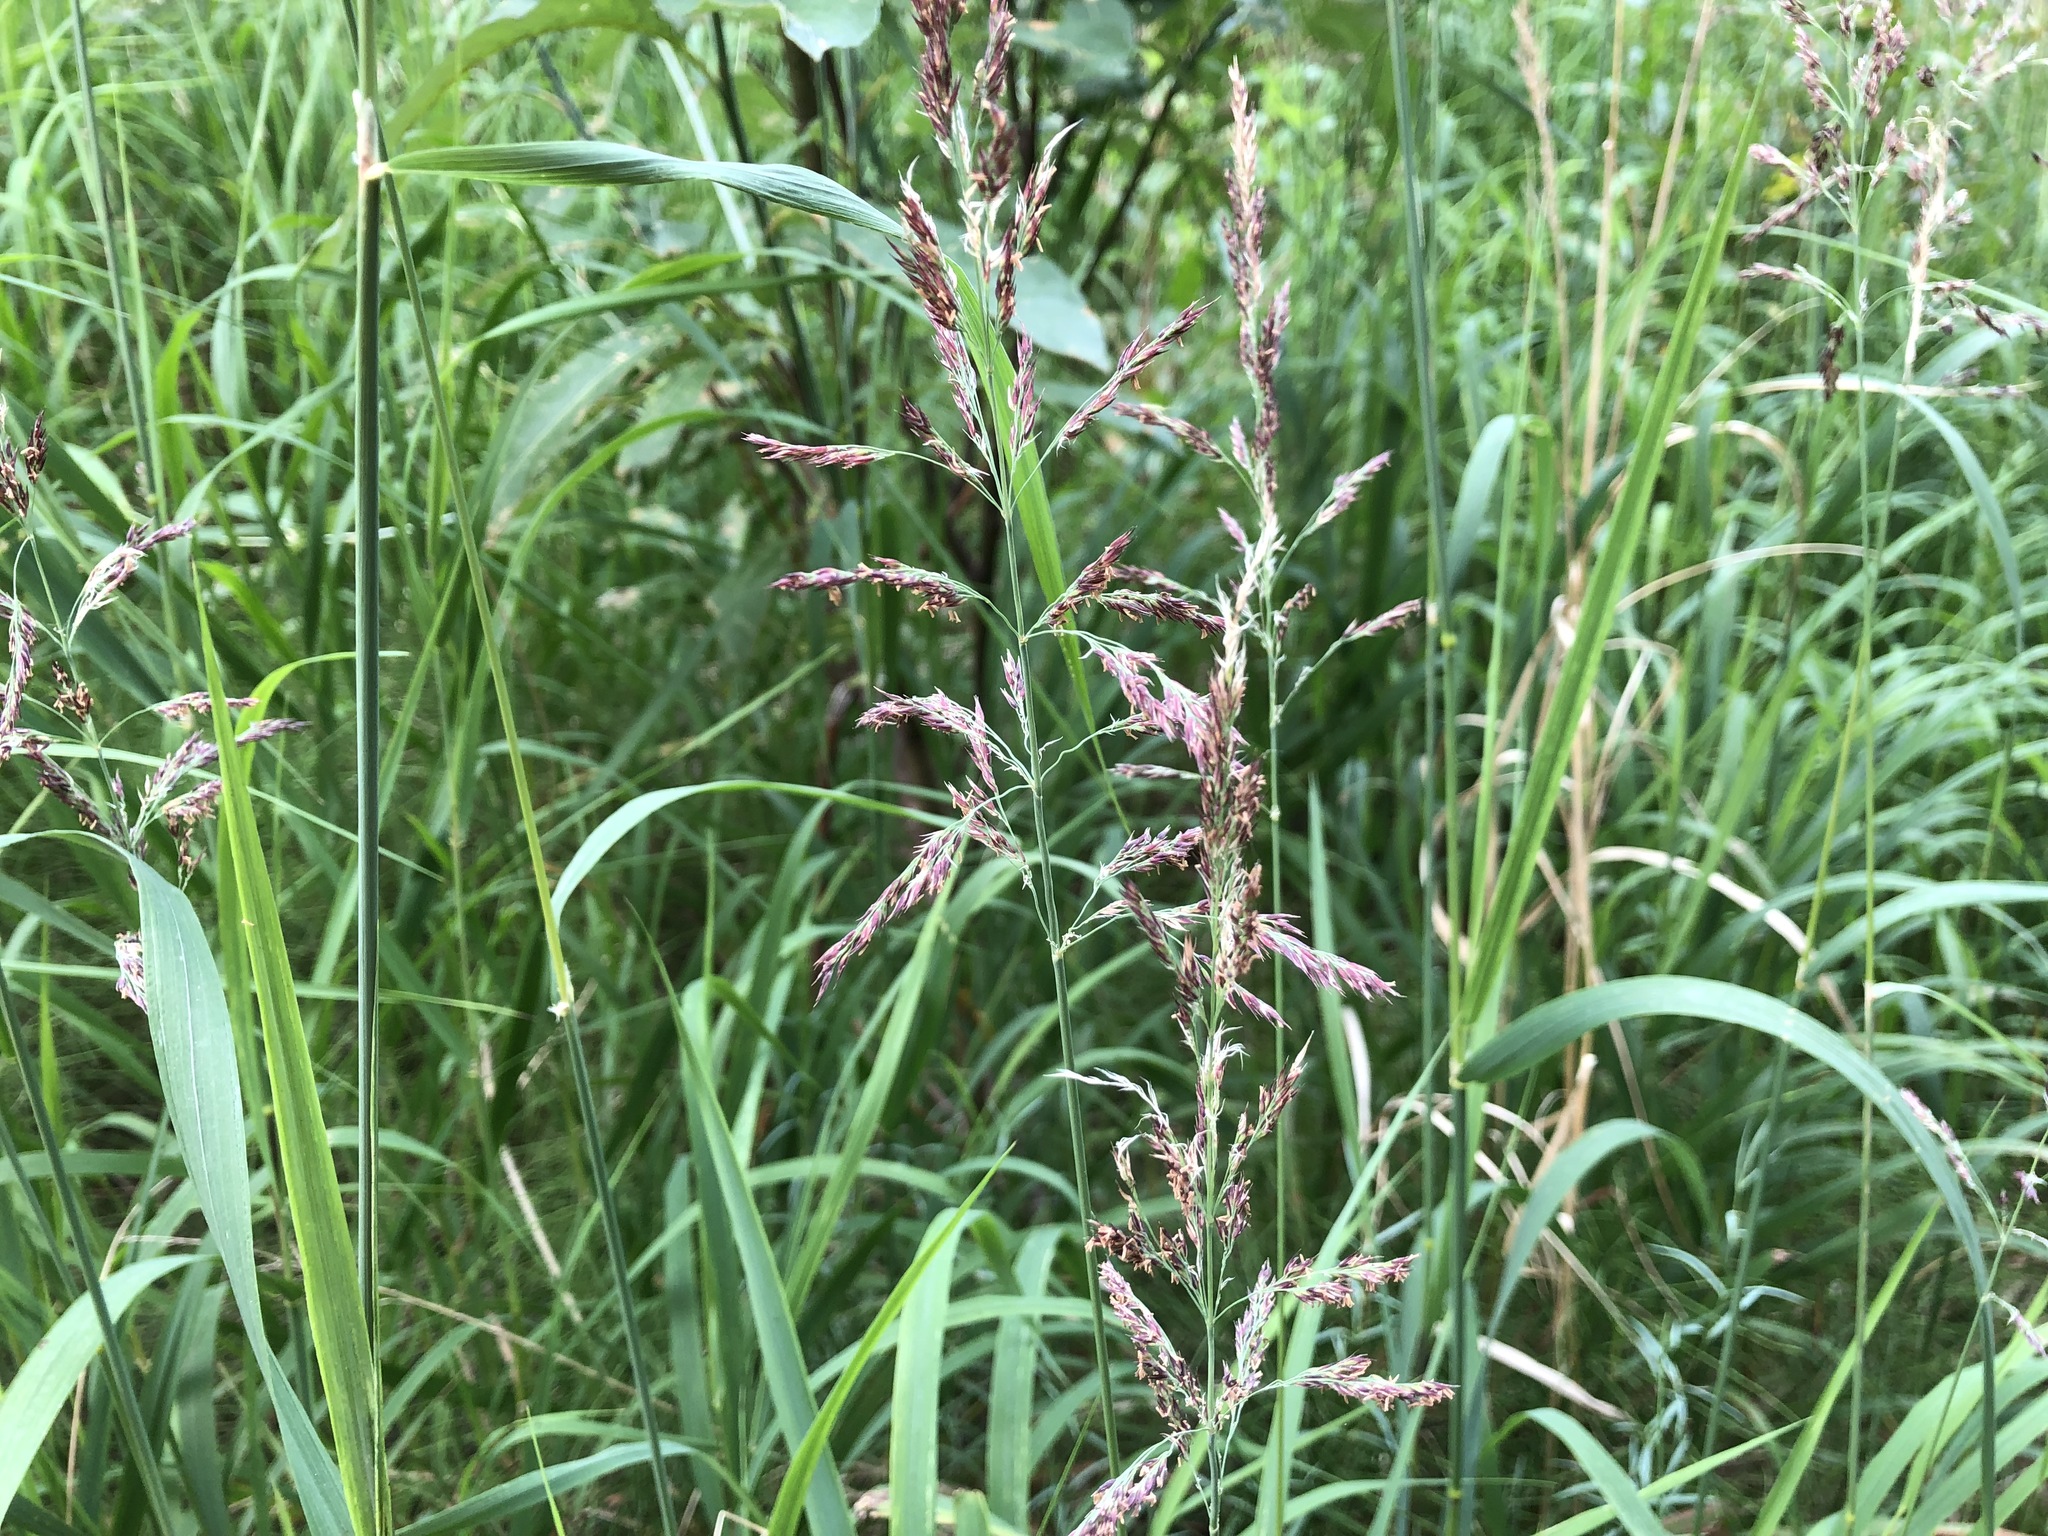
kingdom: Plantae
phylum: Tracheophyta
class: Liliopsida
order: Poales
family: Poaceae
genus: Calamagrostis
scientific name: Calamagrostis canadensis
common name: Canada bluejoint
